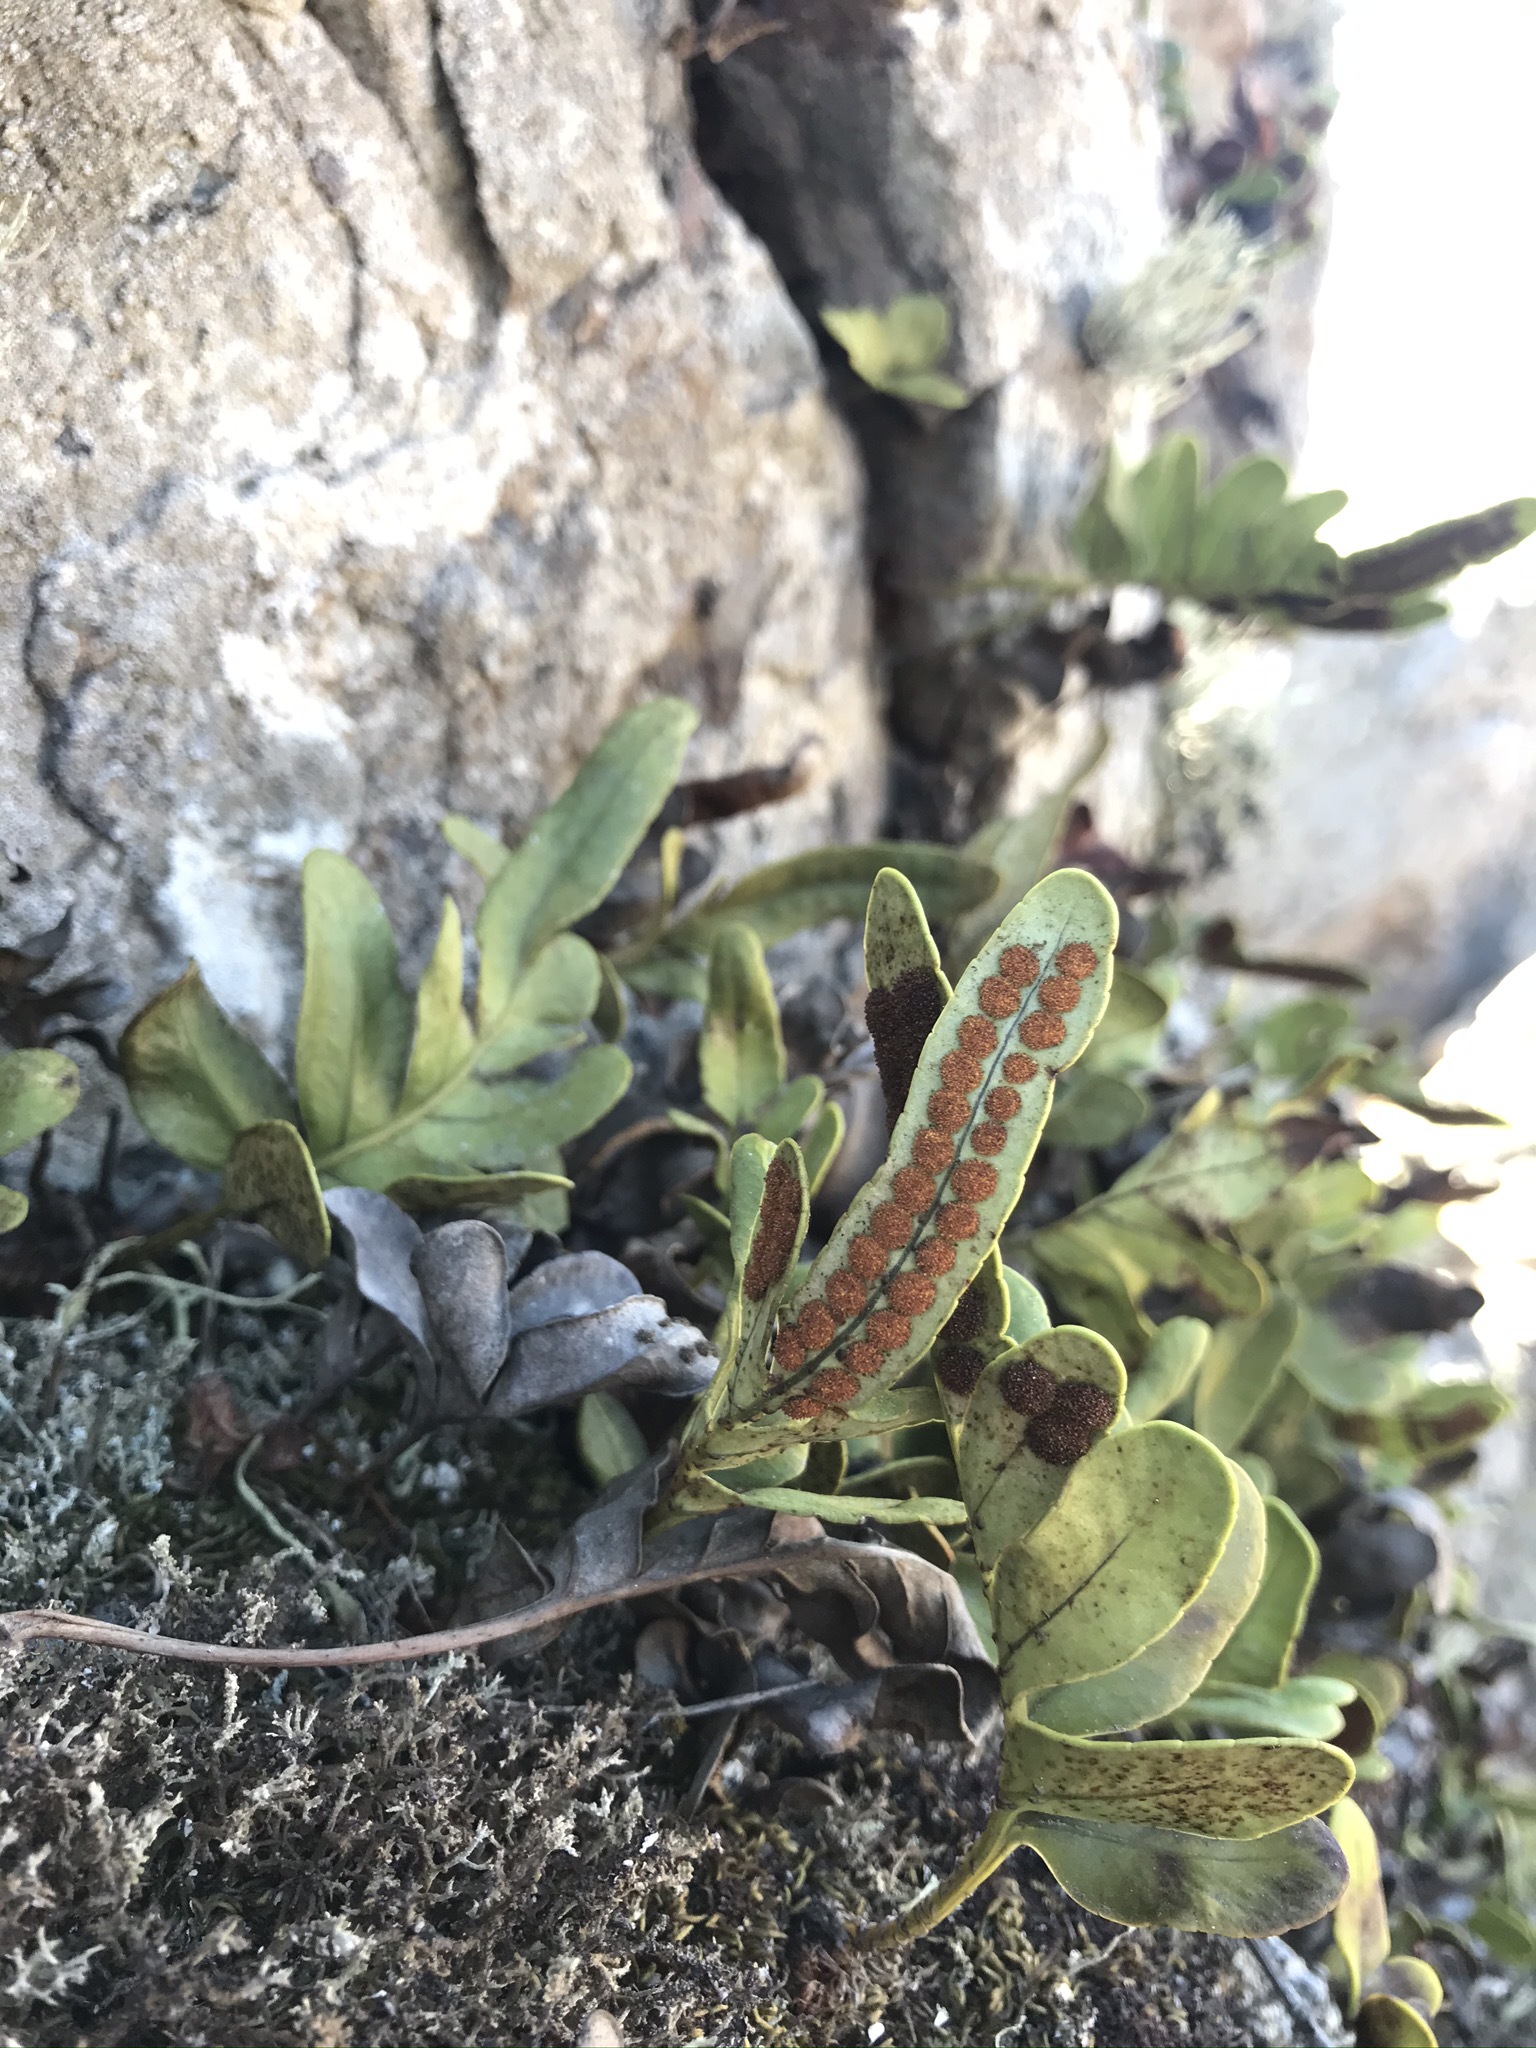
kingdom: Plantae
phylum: Tracheophyta
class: Polypodiopsida
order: Polypodiales
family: Polypodiaceae
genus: Polypodium
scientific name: Polypodium scouleri
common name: Scouler's polypody
